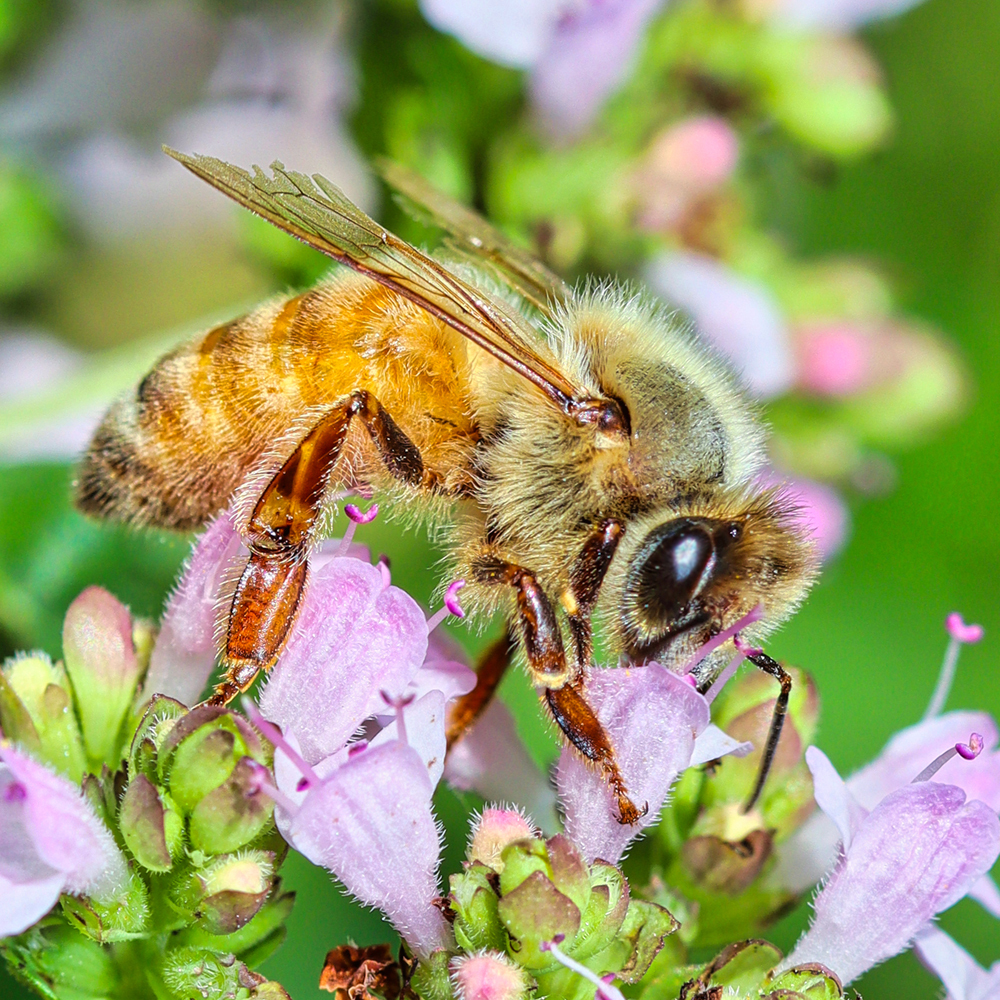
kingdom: Animalia
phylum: Arthropoda
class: Insecta
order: Hymenoptera
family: Apidae
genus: Apis
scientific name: Apis mellifera
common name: Honey bee
